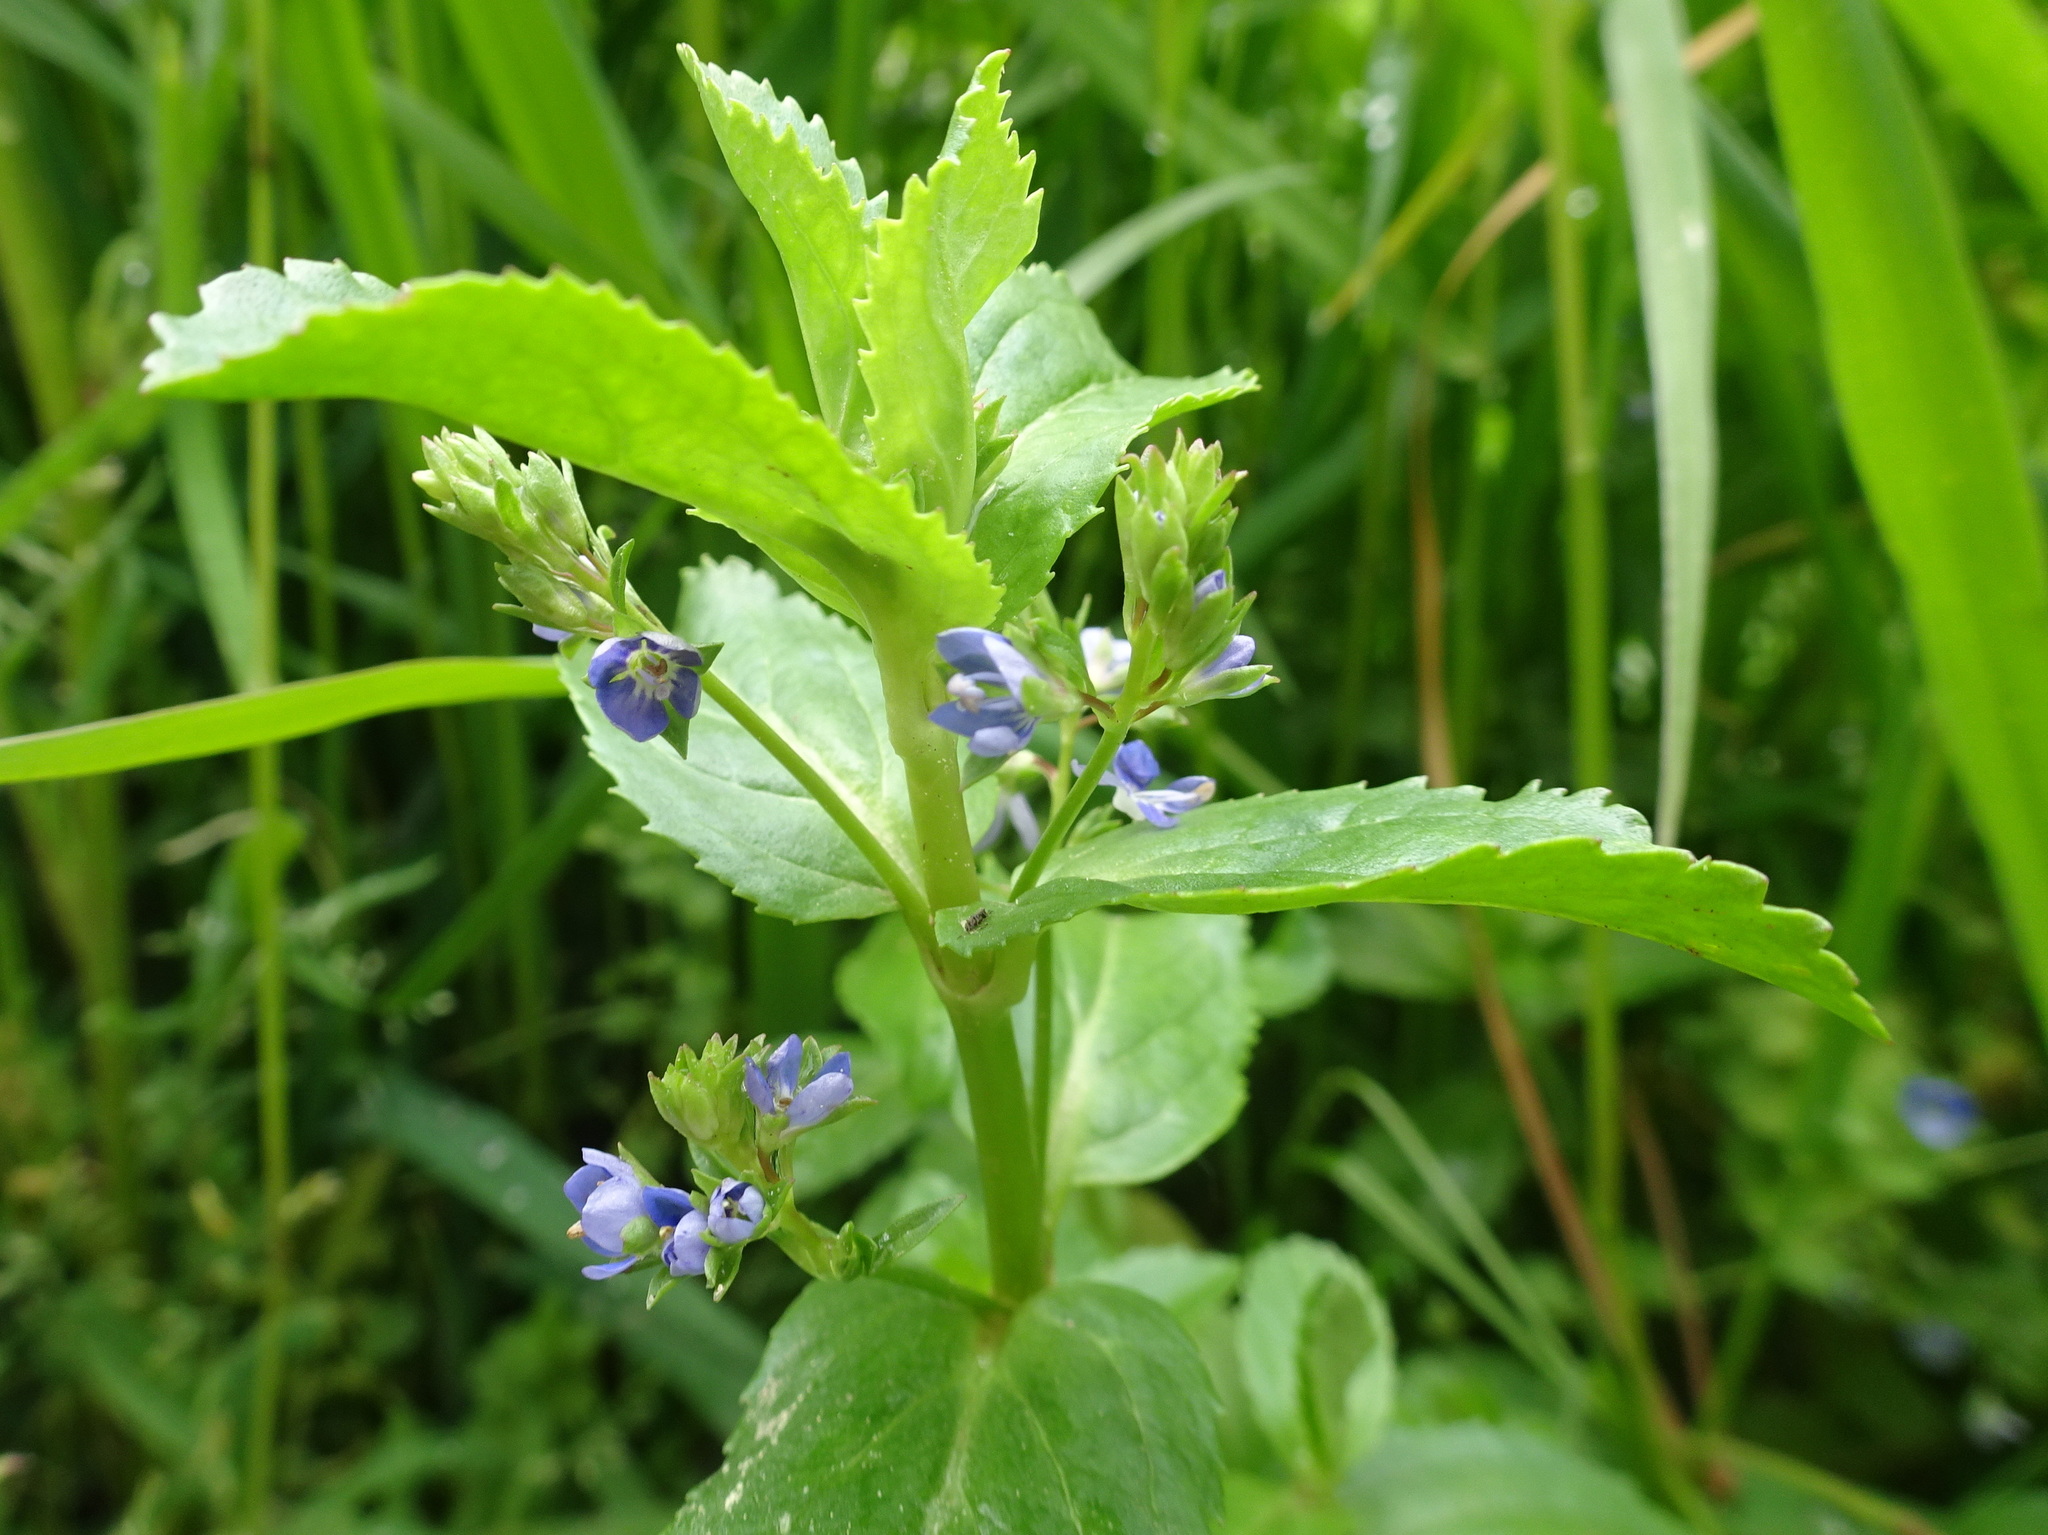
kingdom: Plantae
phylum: Tracheophyta
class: Magnoliopsida
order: Lamiales
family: Plantaginaceae
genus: Veronica
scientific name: Veronica beccabunga
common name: Brooklime
